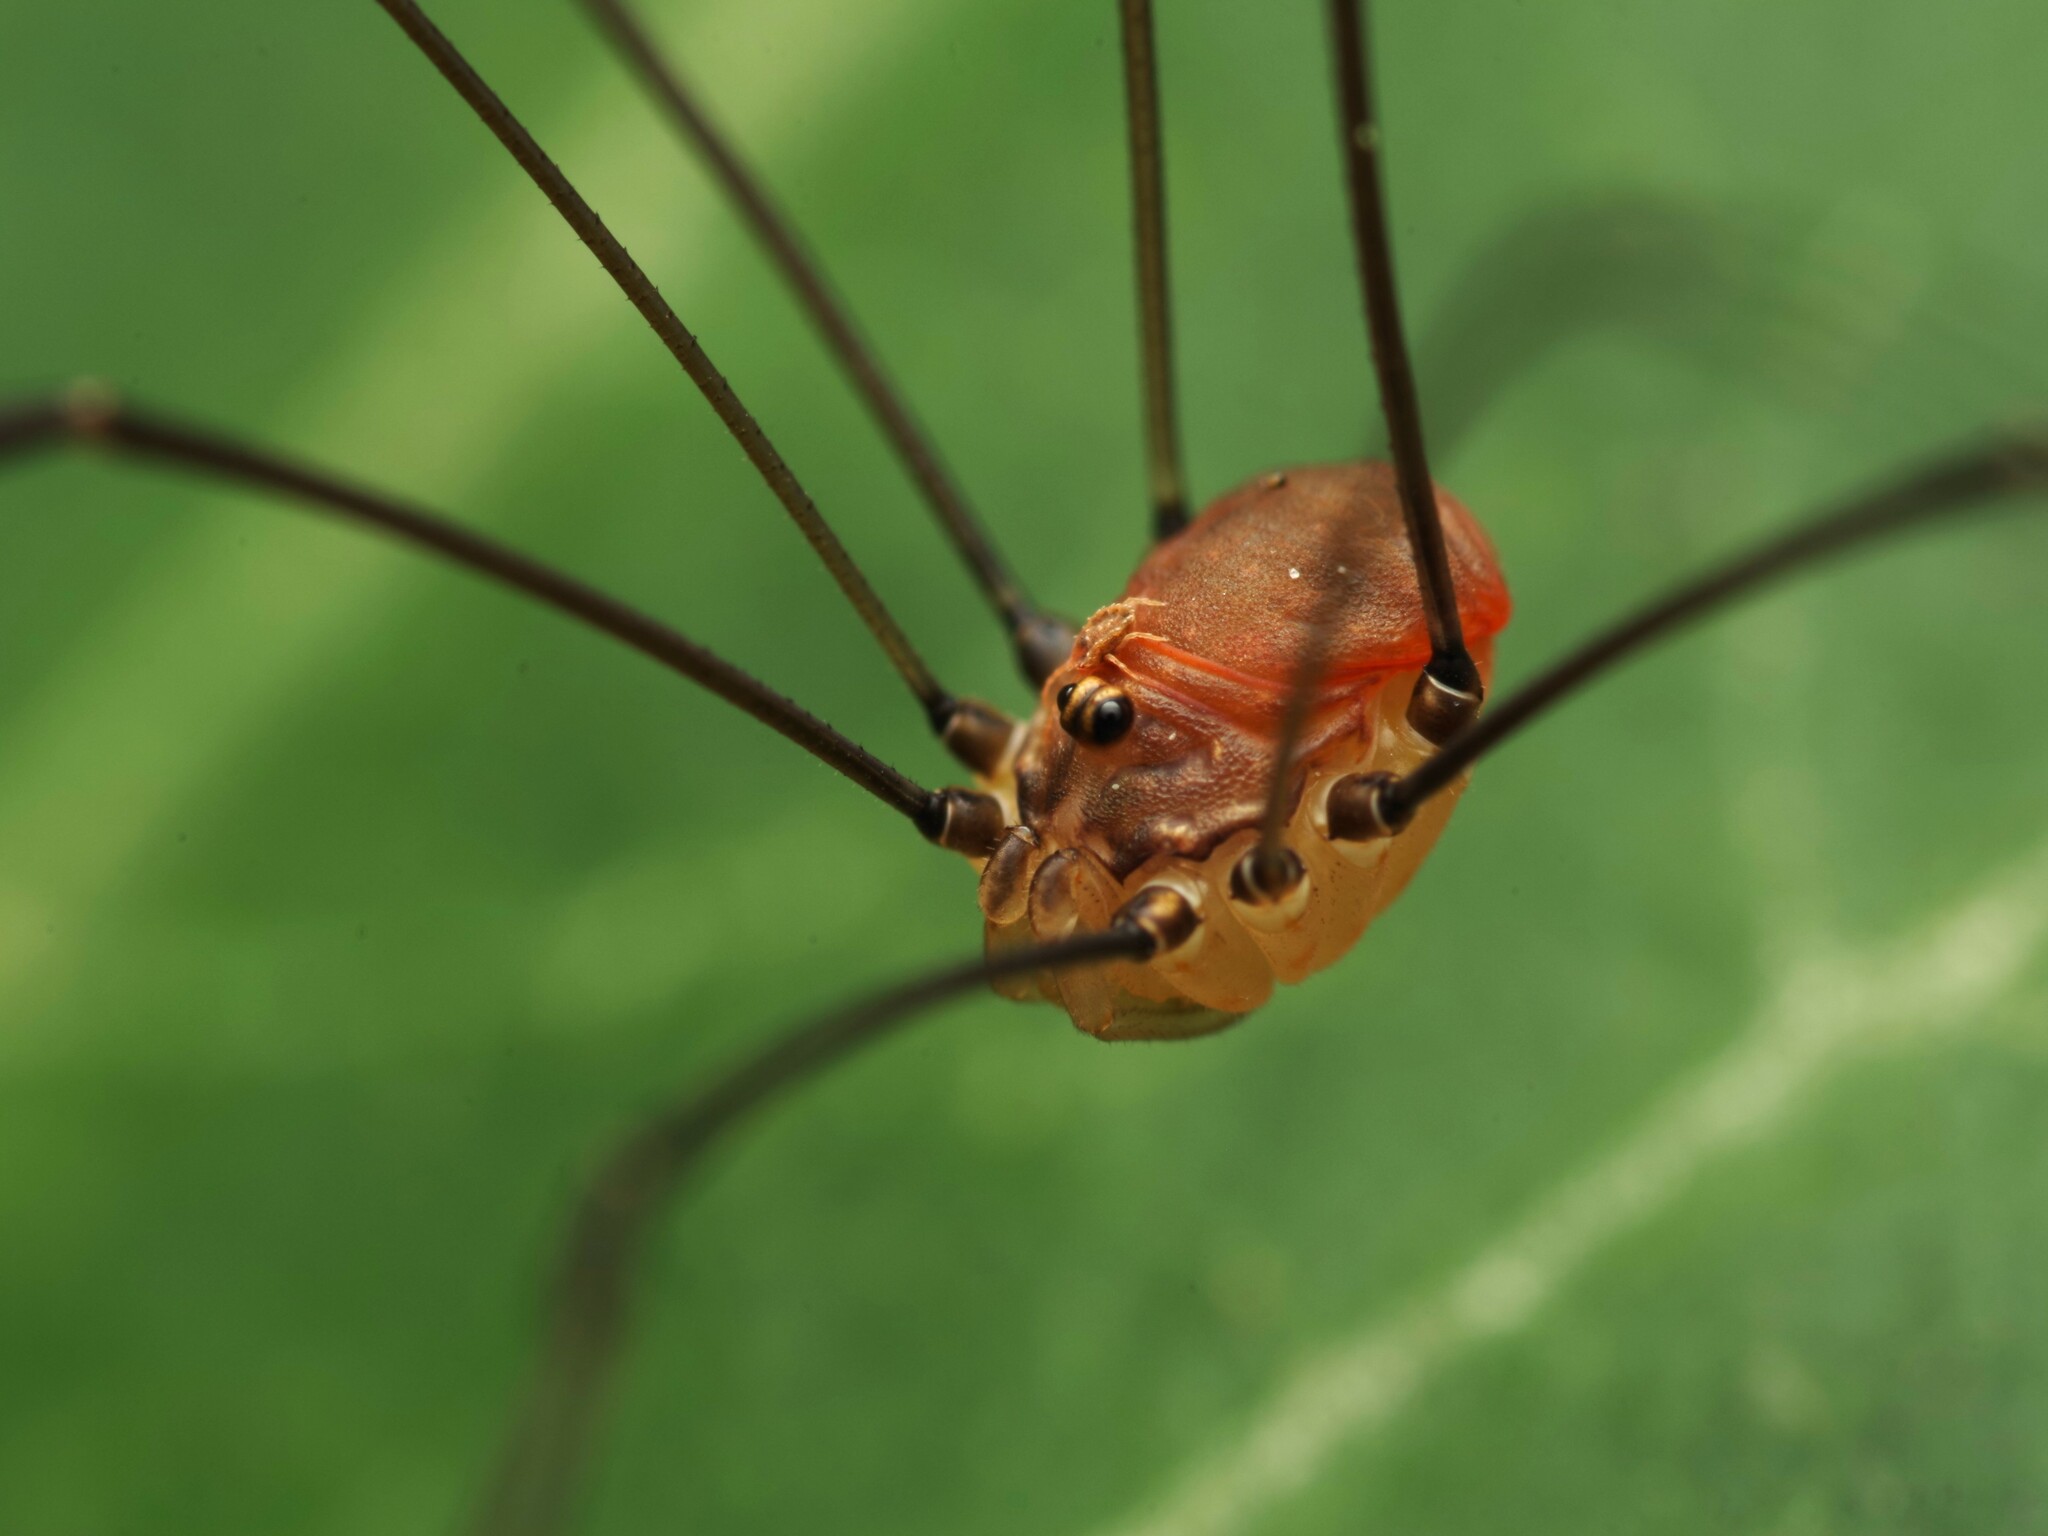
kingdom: Animalia
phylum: Arthropoda
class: Arachnida
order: Opiliones
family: Sclerosomatidae
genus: Leiobunum
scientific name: Leiobunum blackwalli
